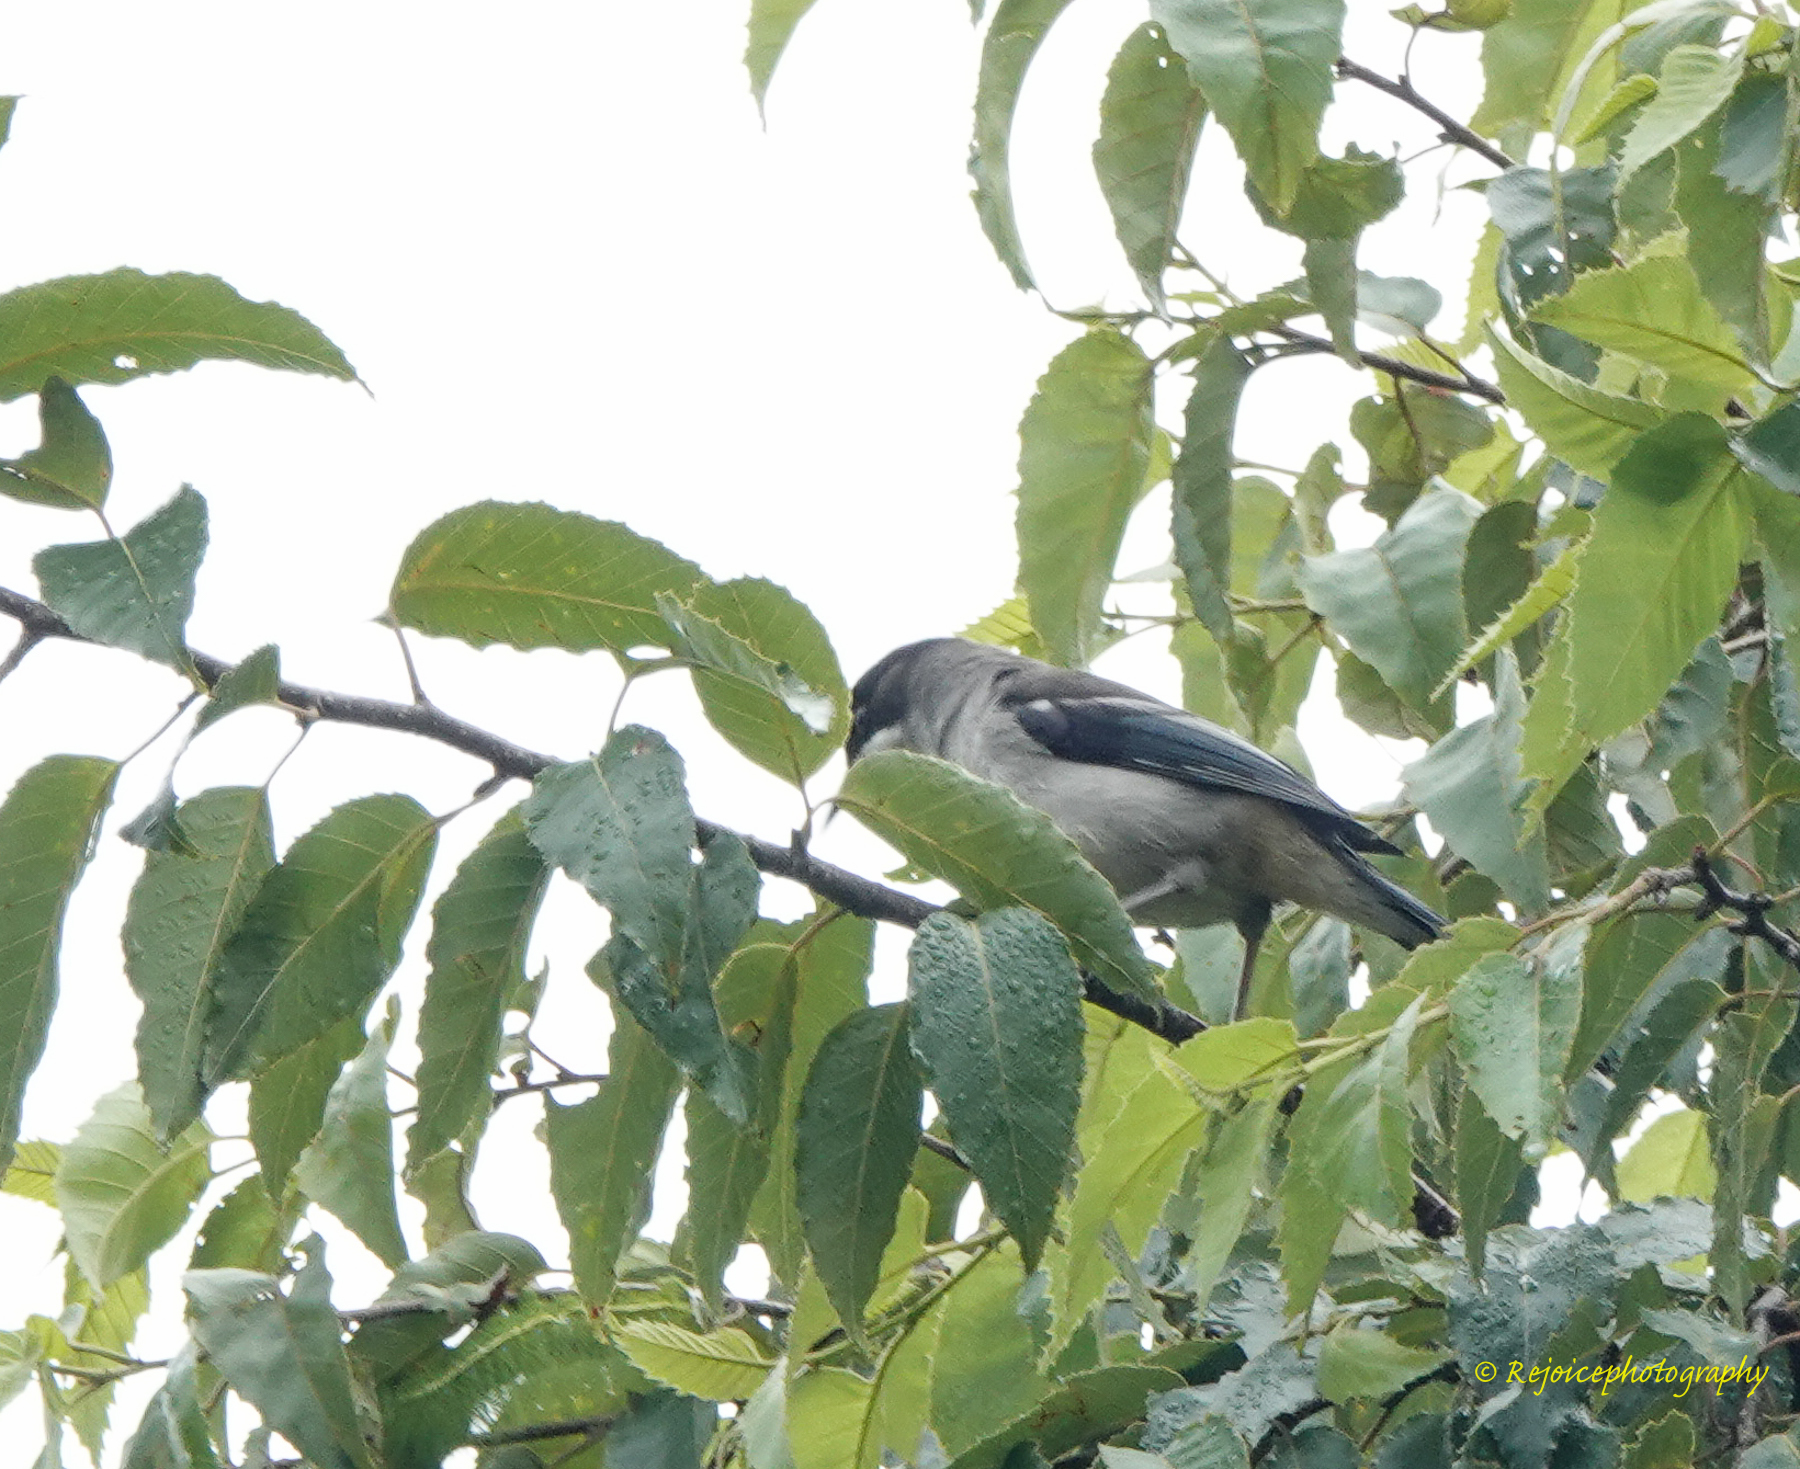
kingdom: Animalia
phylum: Chordata
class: Aves
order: Passeriformes
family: Leiothrichidae
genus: Heterophasia
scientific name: Heterophasia gracilis
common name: Grey sibia
